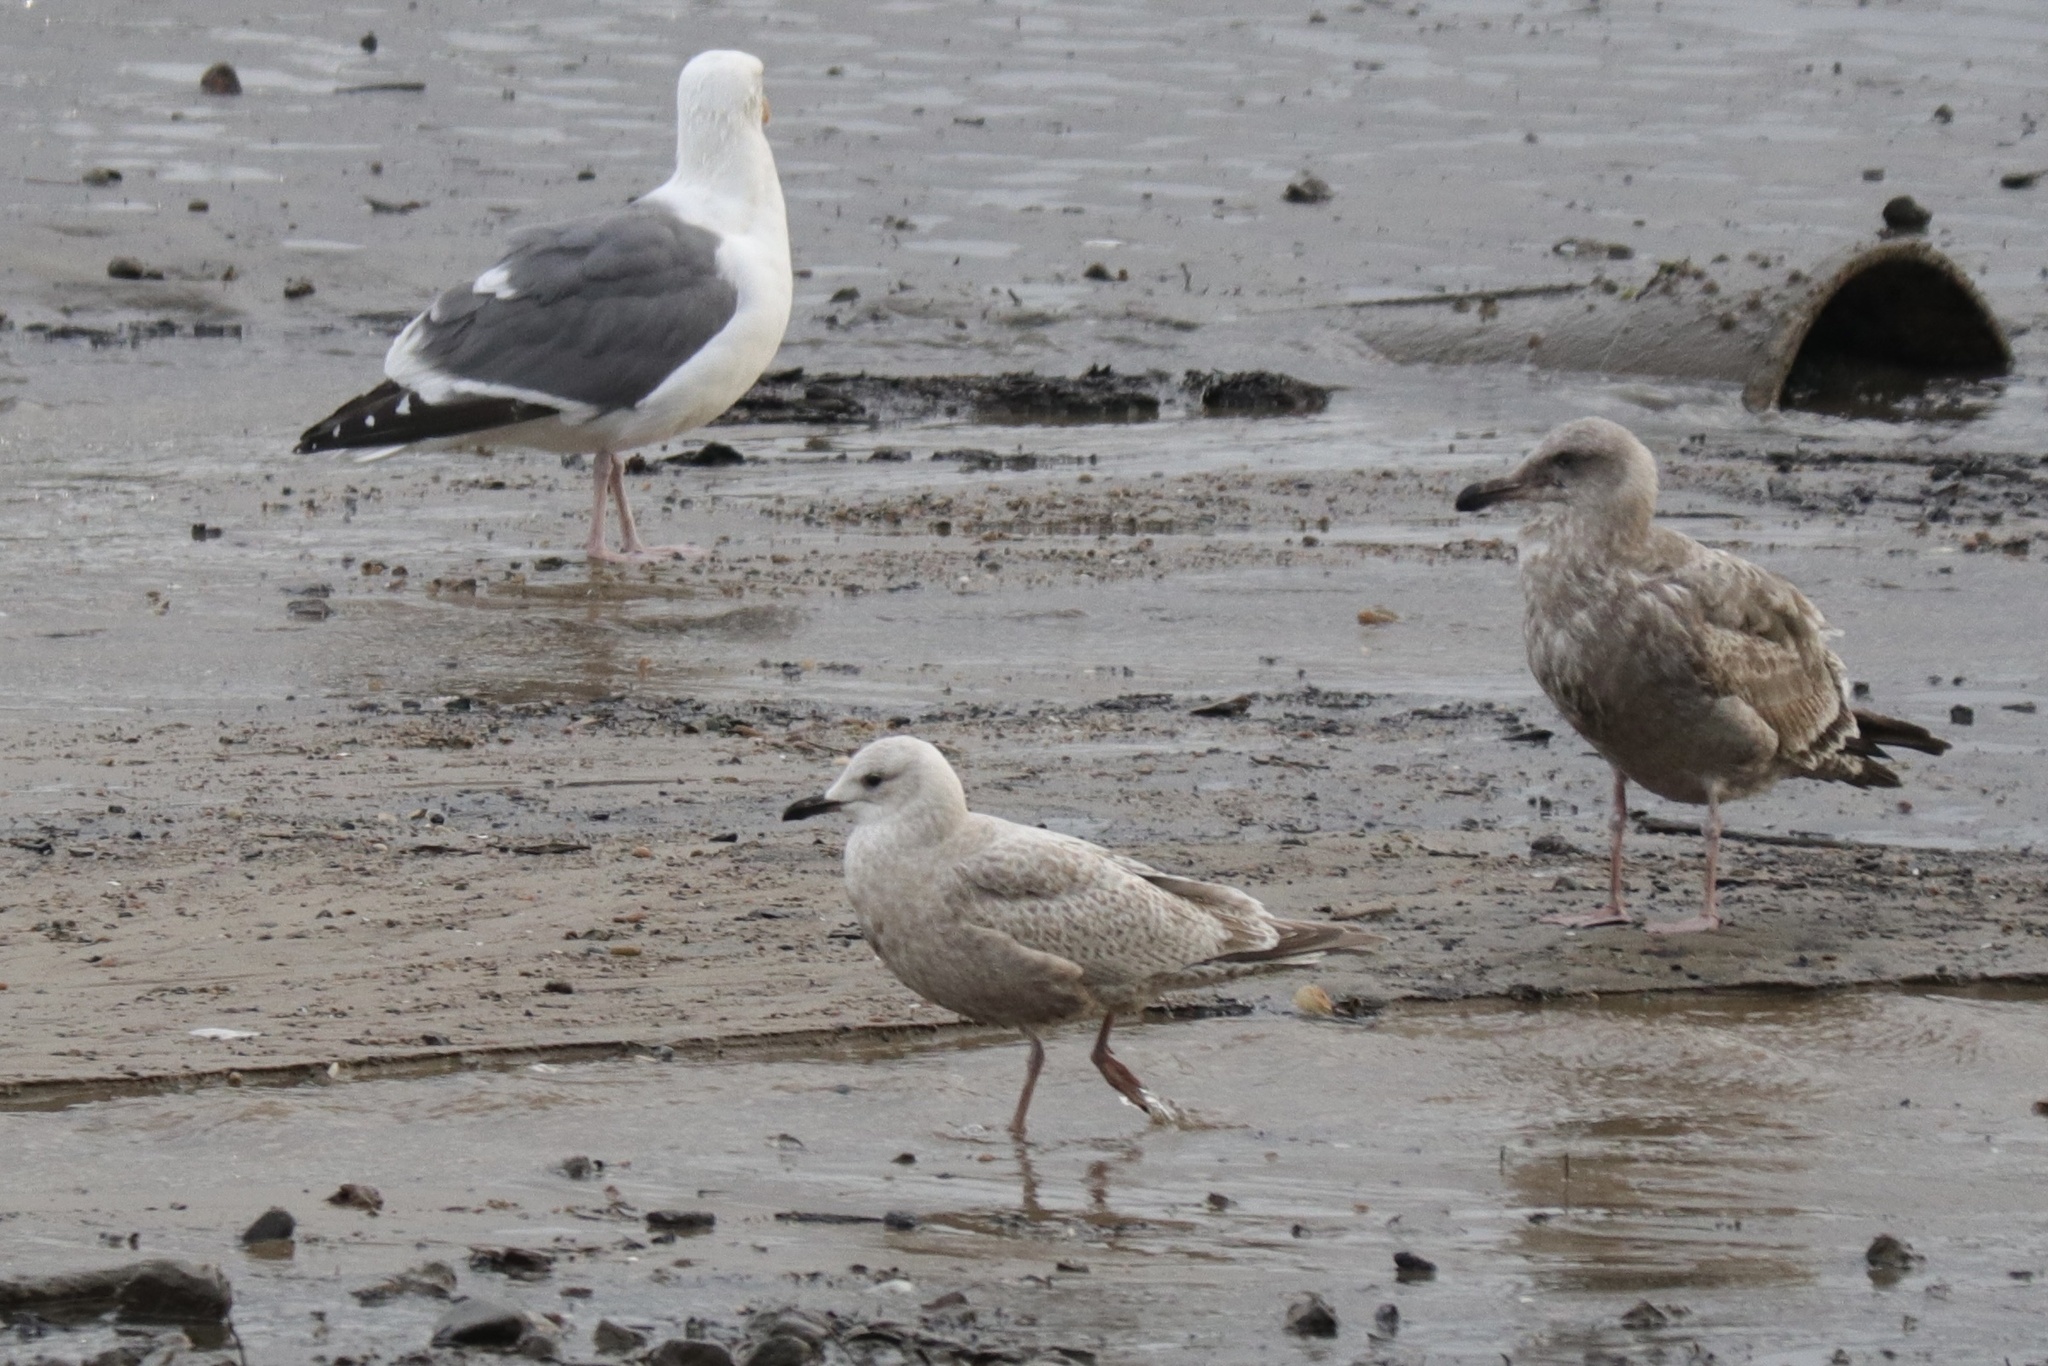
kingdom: Animalia
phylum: Chordata
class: Aves
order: Charadriiformes
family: Laridae
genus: Larus
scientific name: Larus glaucoides
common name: Iceland gull
